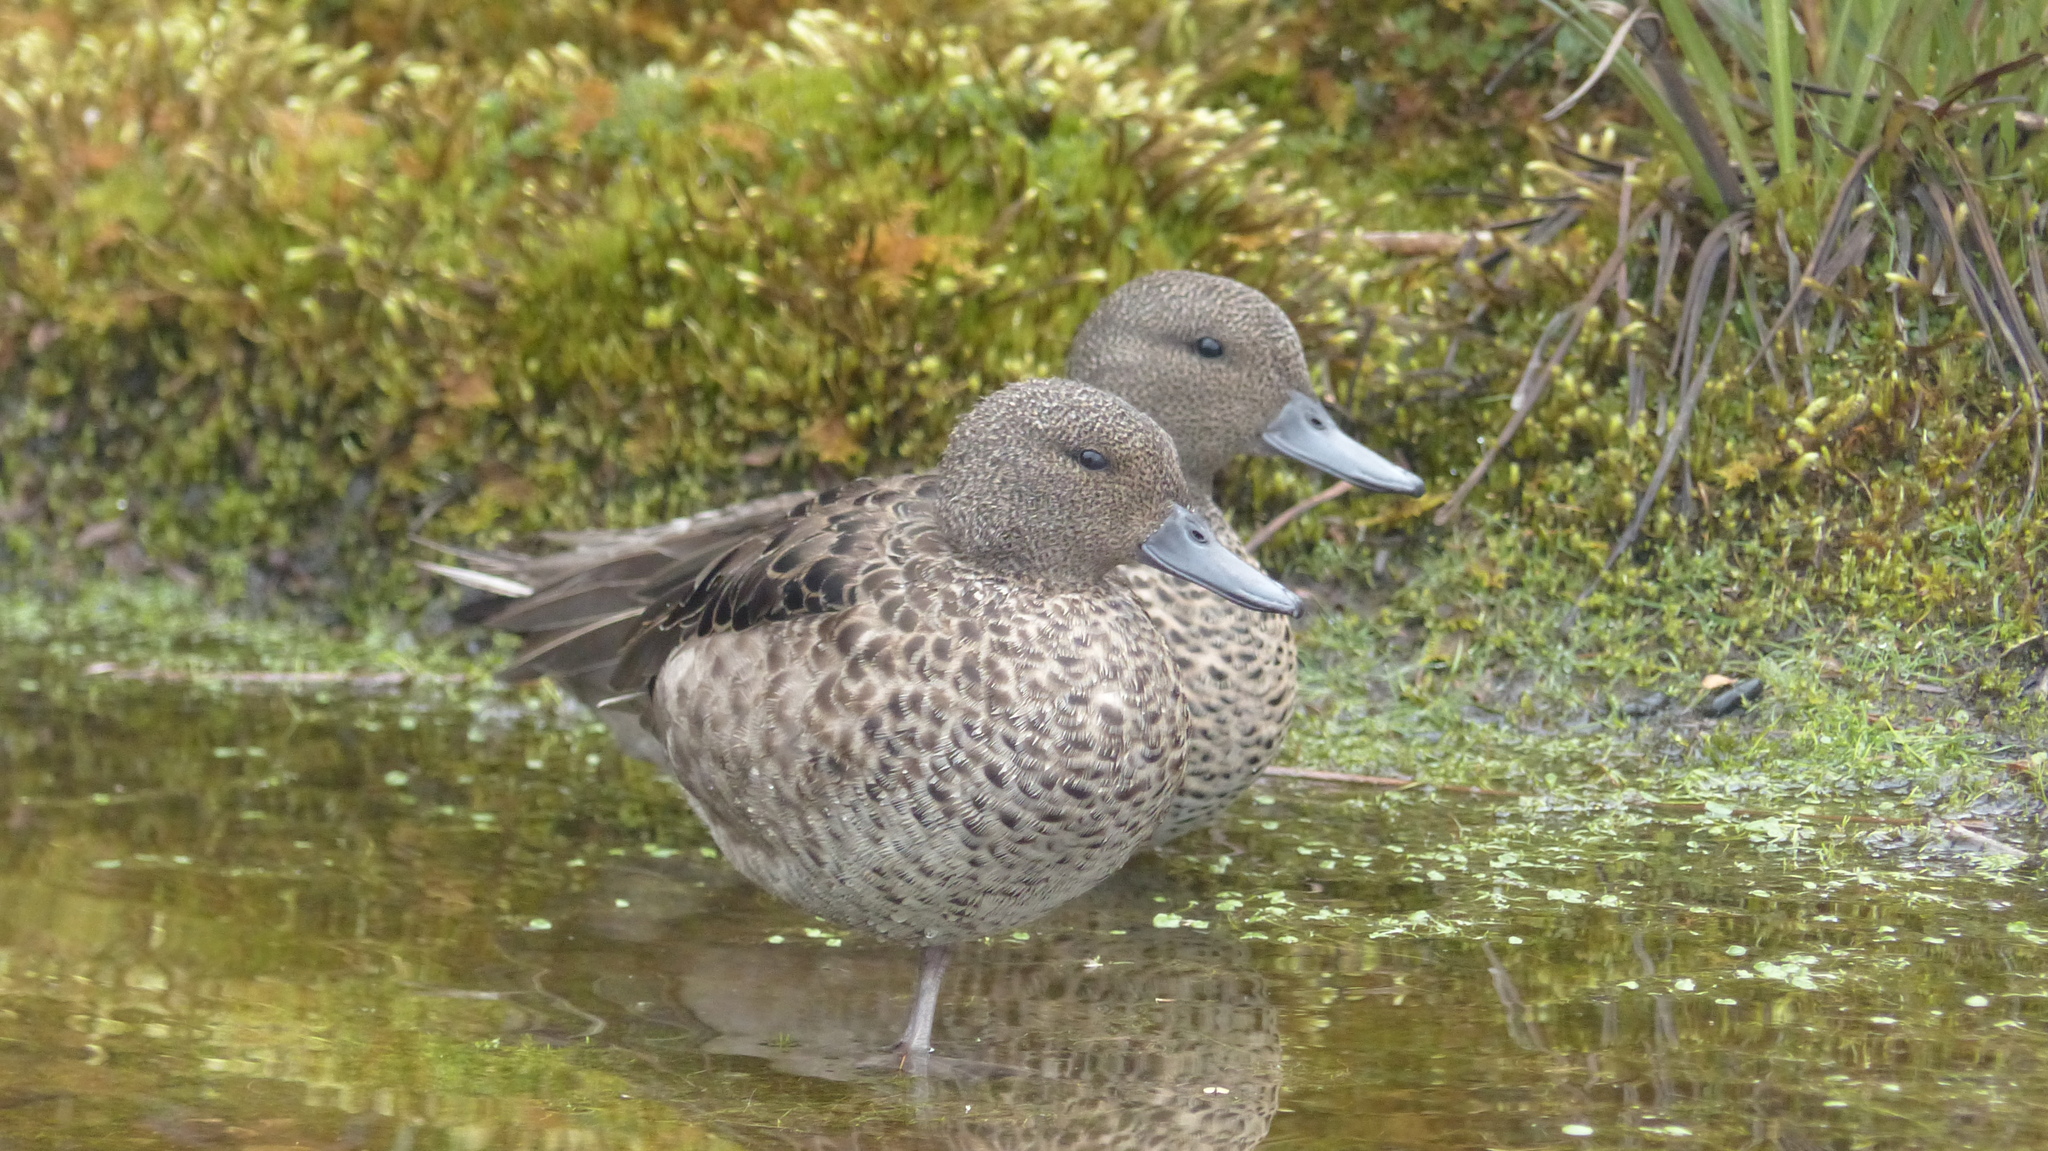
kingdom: Animalia
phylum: Chordata
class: Aves
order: Anseriformes
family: Anatidae
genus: Anas
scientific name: Anas andium
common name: Andean teal
